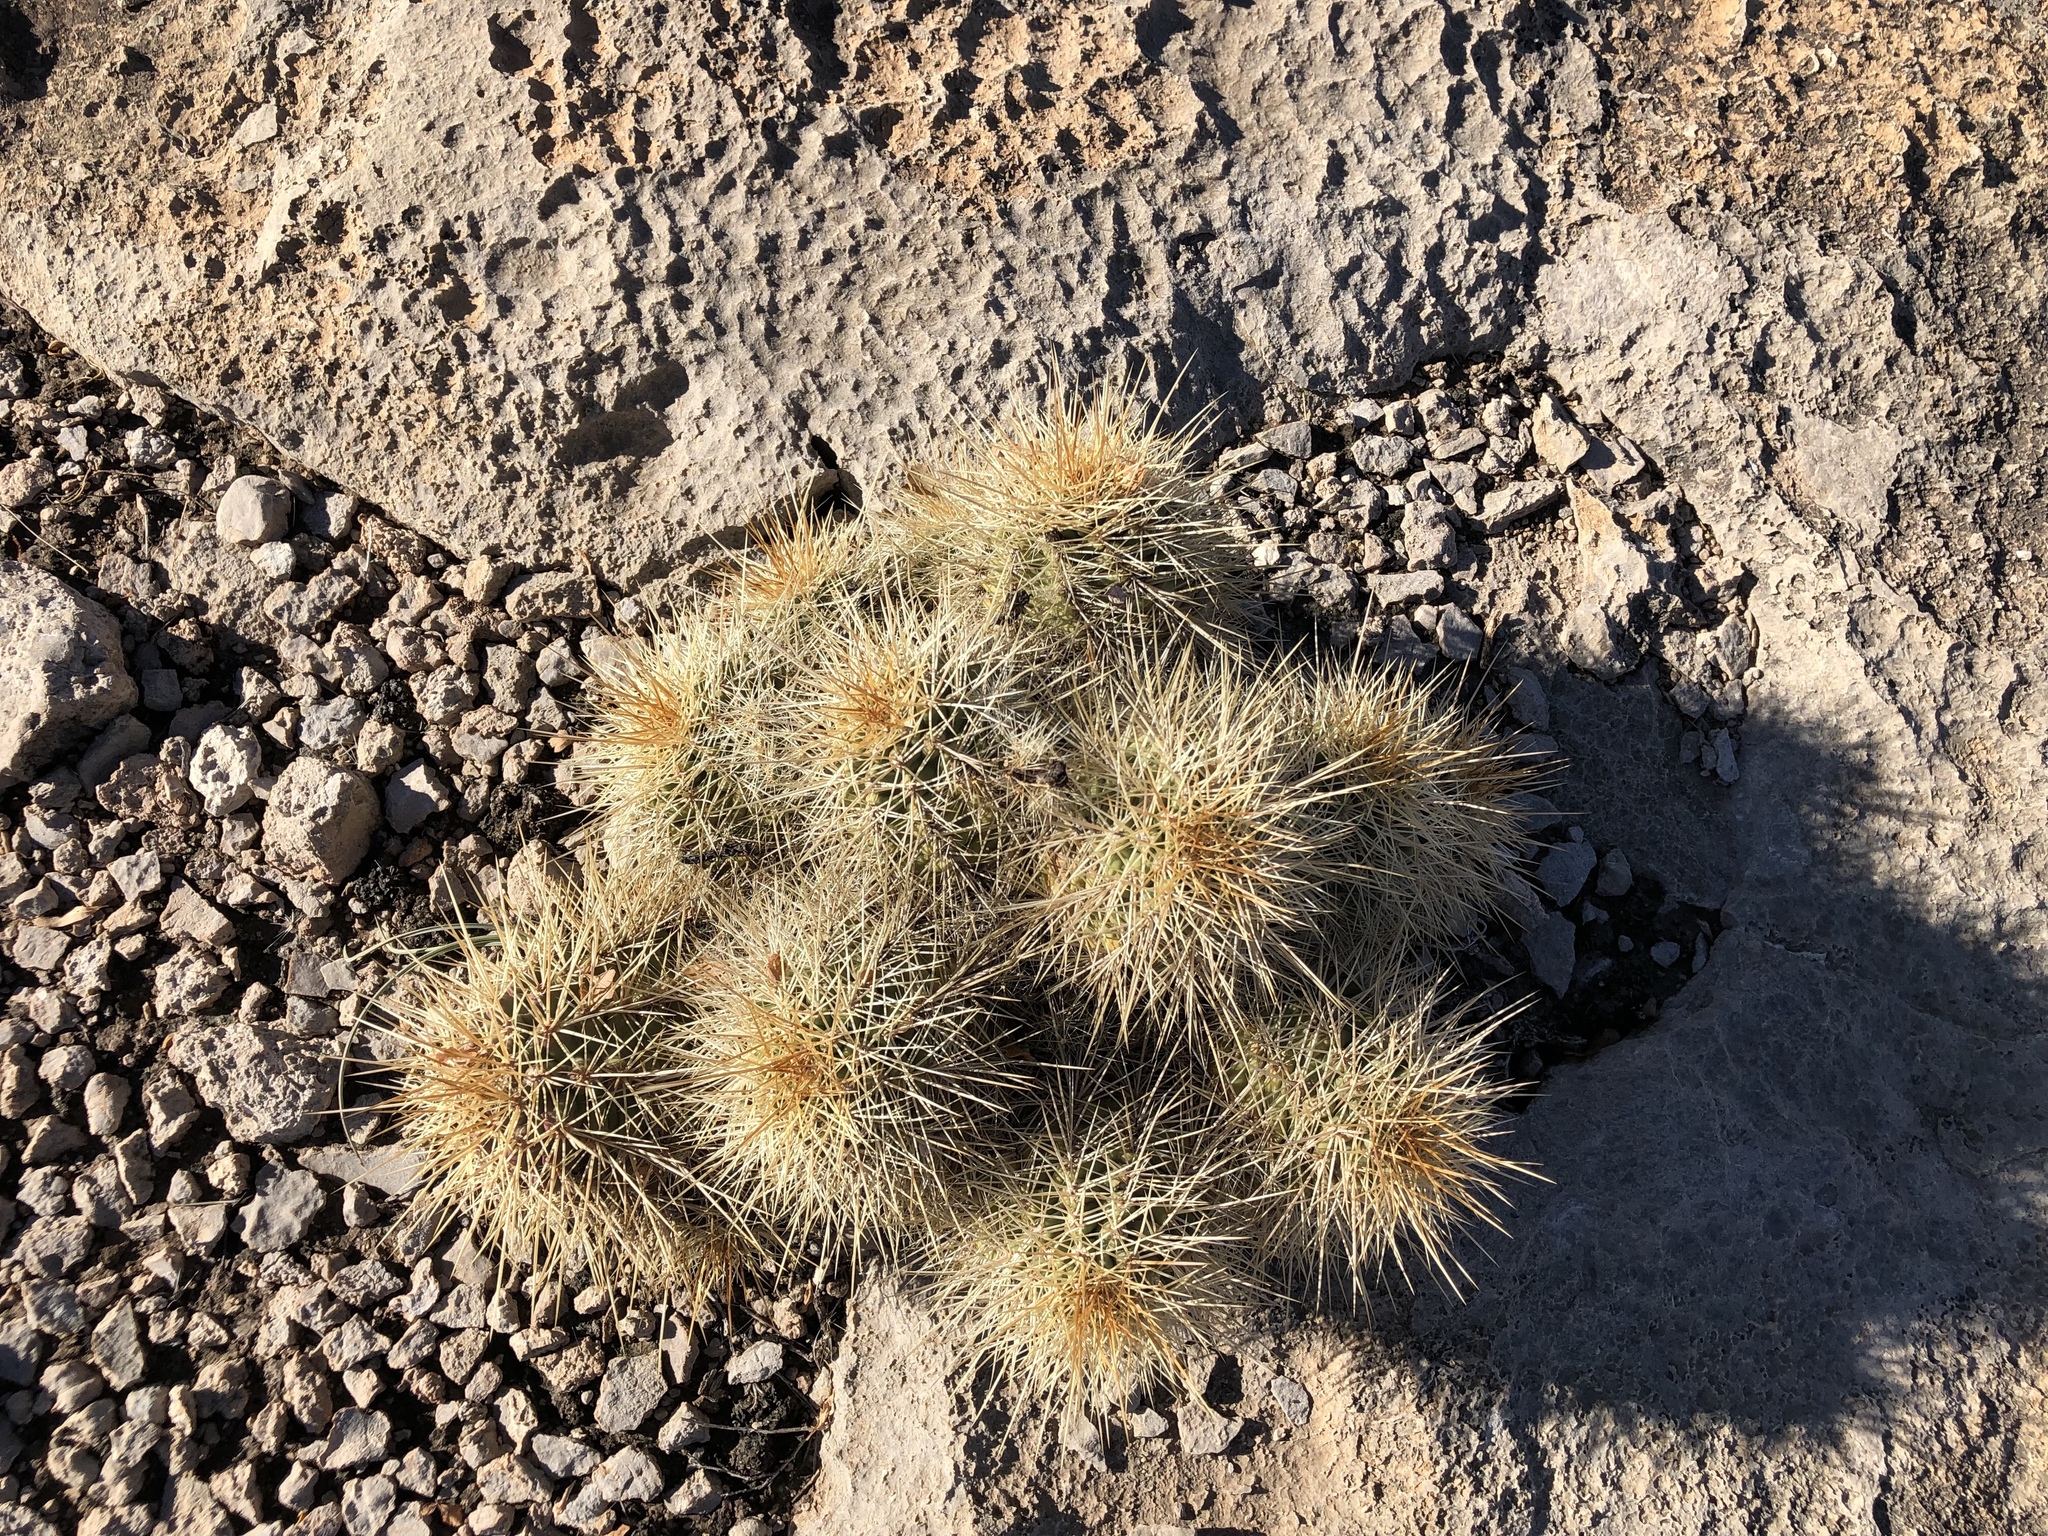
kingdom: Plantae
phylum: Tracheophyta
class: Magnoliopsida
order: Caryophyllales
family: Cactaceae
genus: Echinocereus
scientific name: Echinocereus coccineus
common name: Scarlet hedgehog cactus
